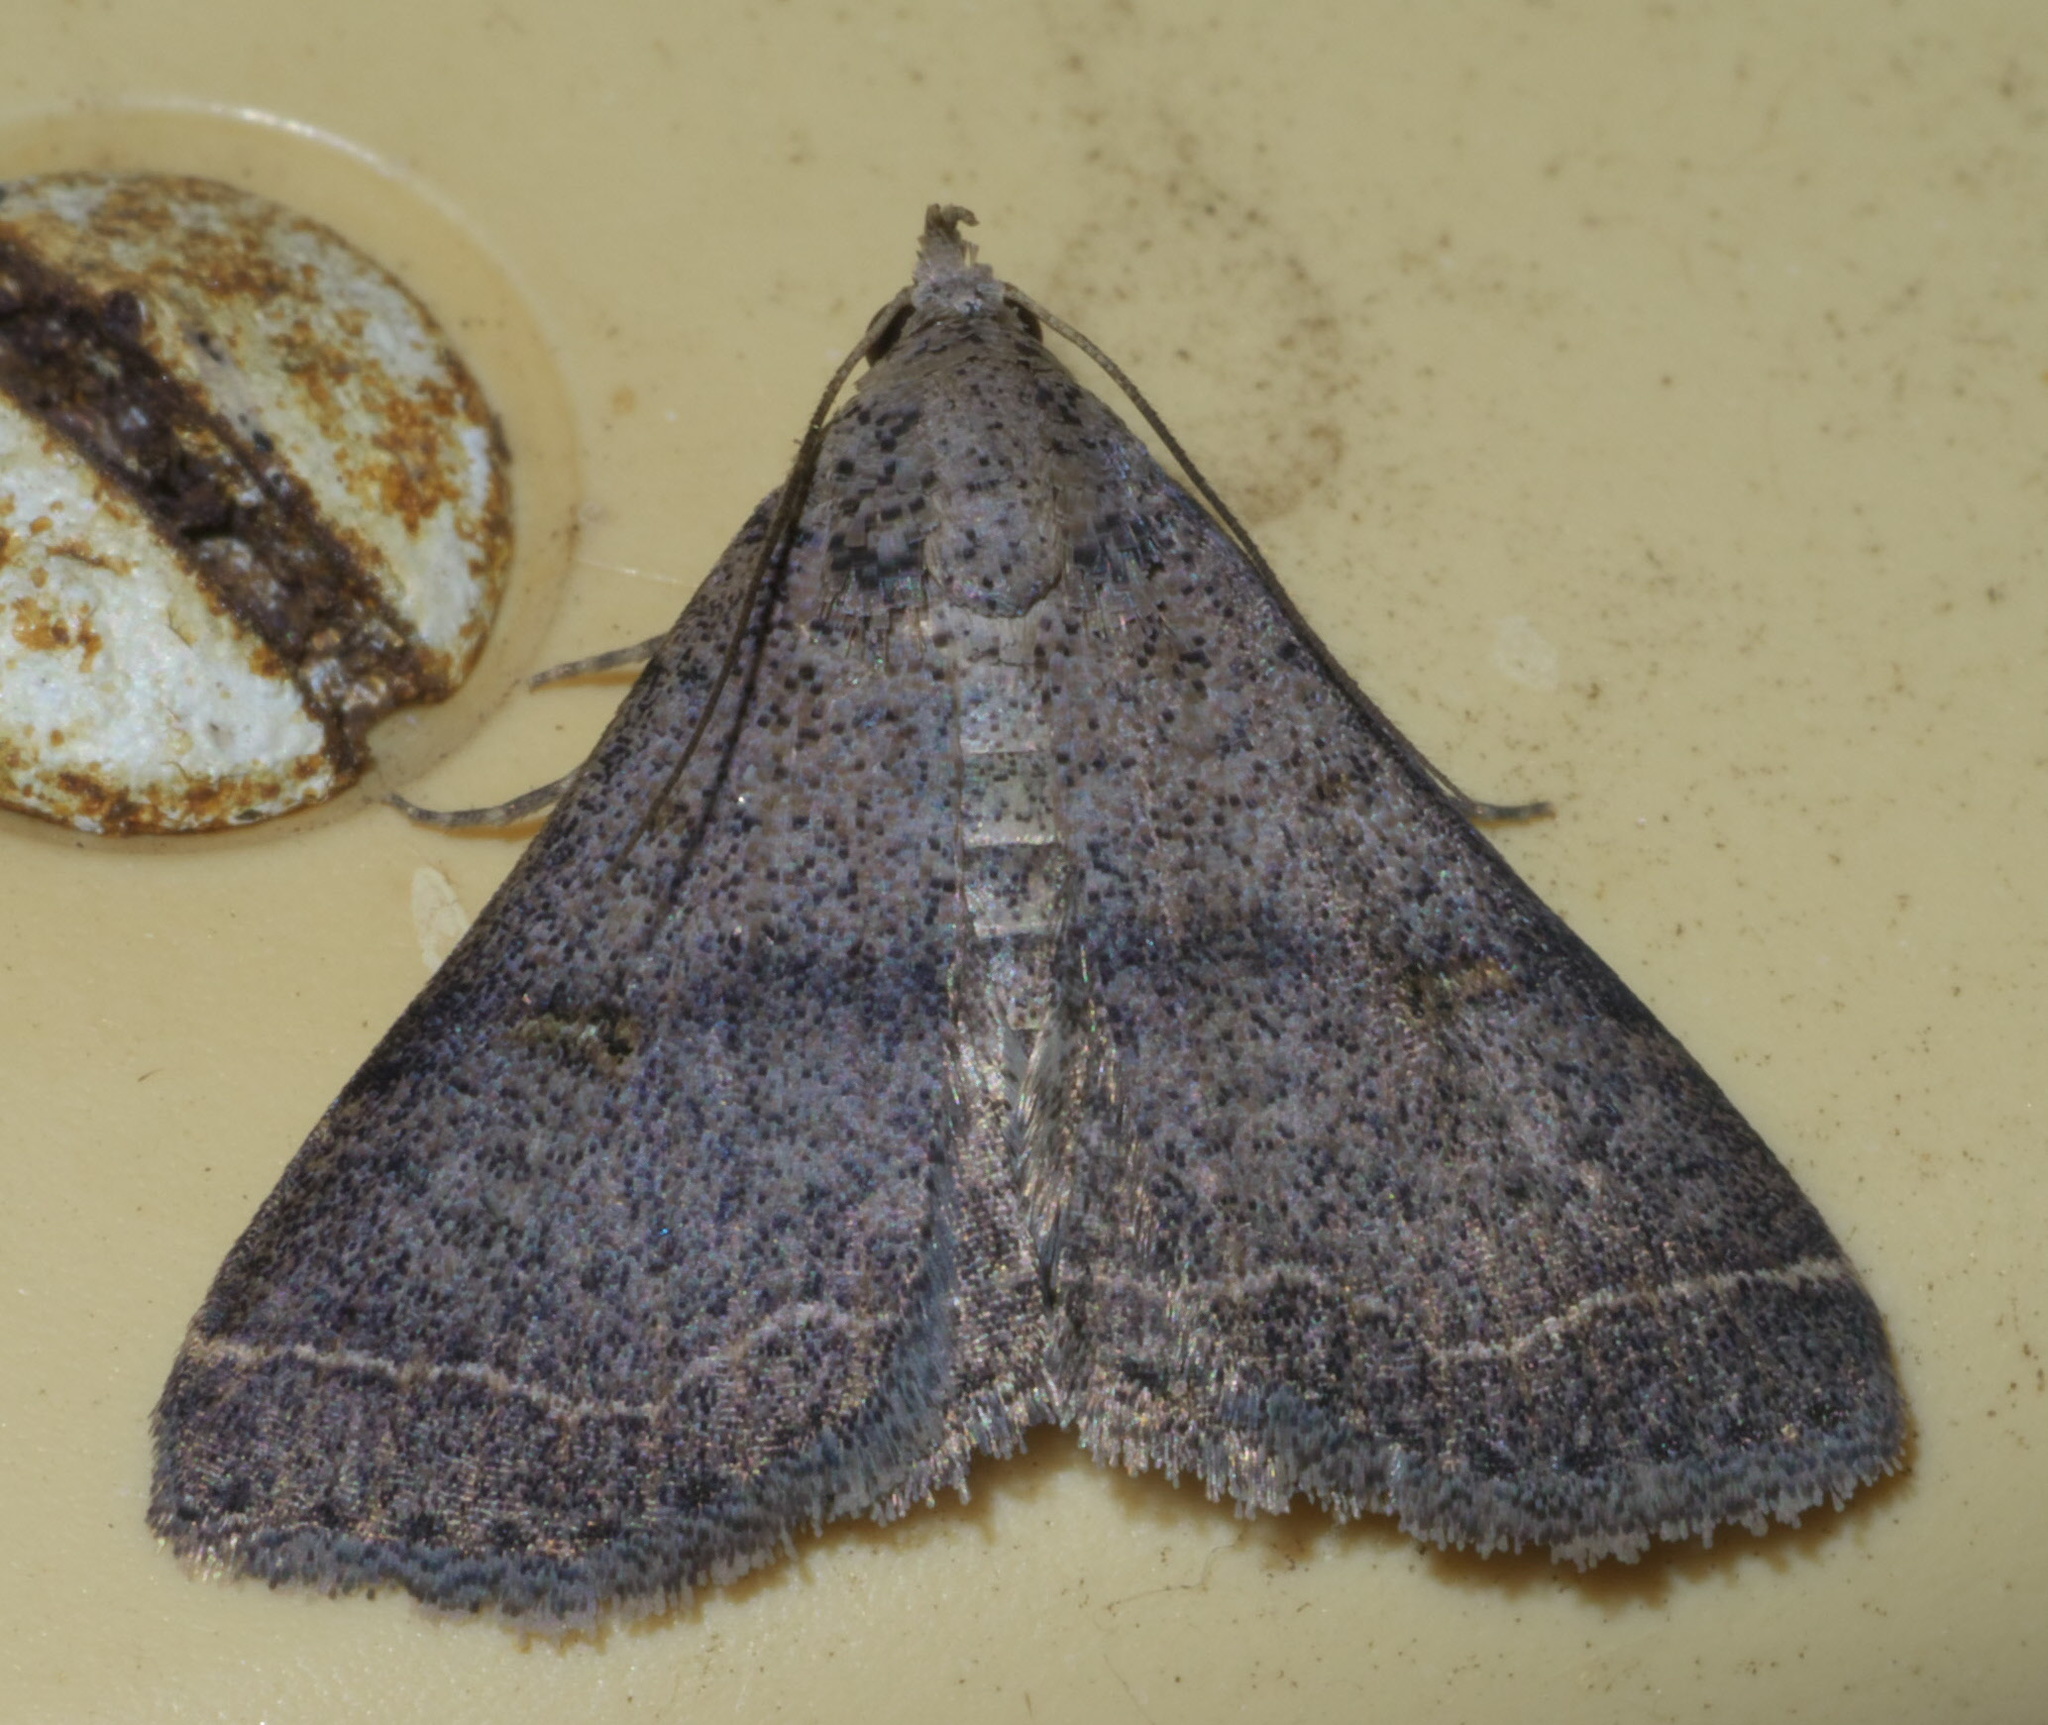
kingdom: Animalia
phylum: Arthropoda
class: Insecta
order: Lepidoptera
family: Erebidae
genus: Bleptina
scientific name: Bleptina caradrinalis
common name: Bent-winged owlet
